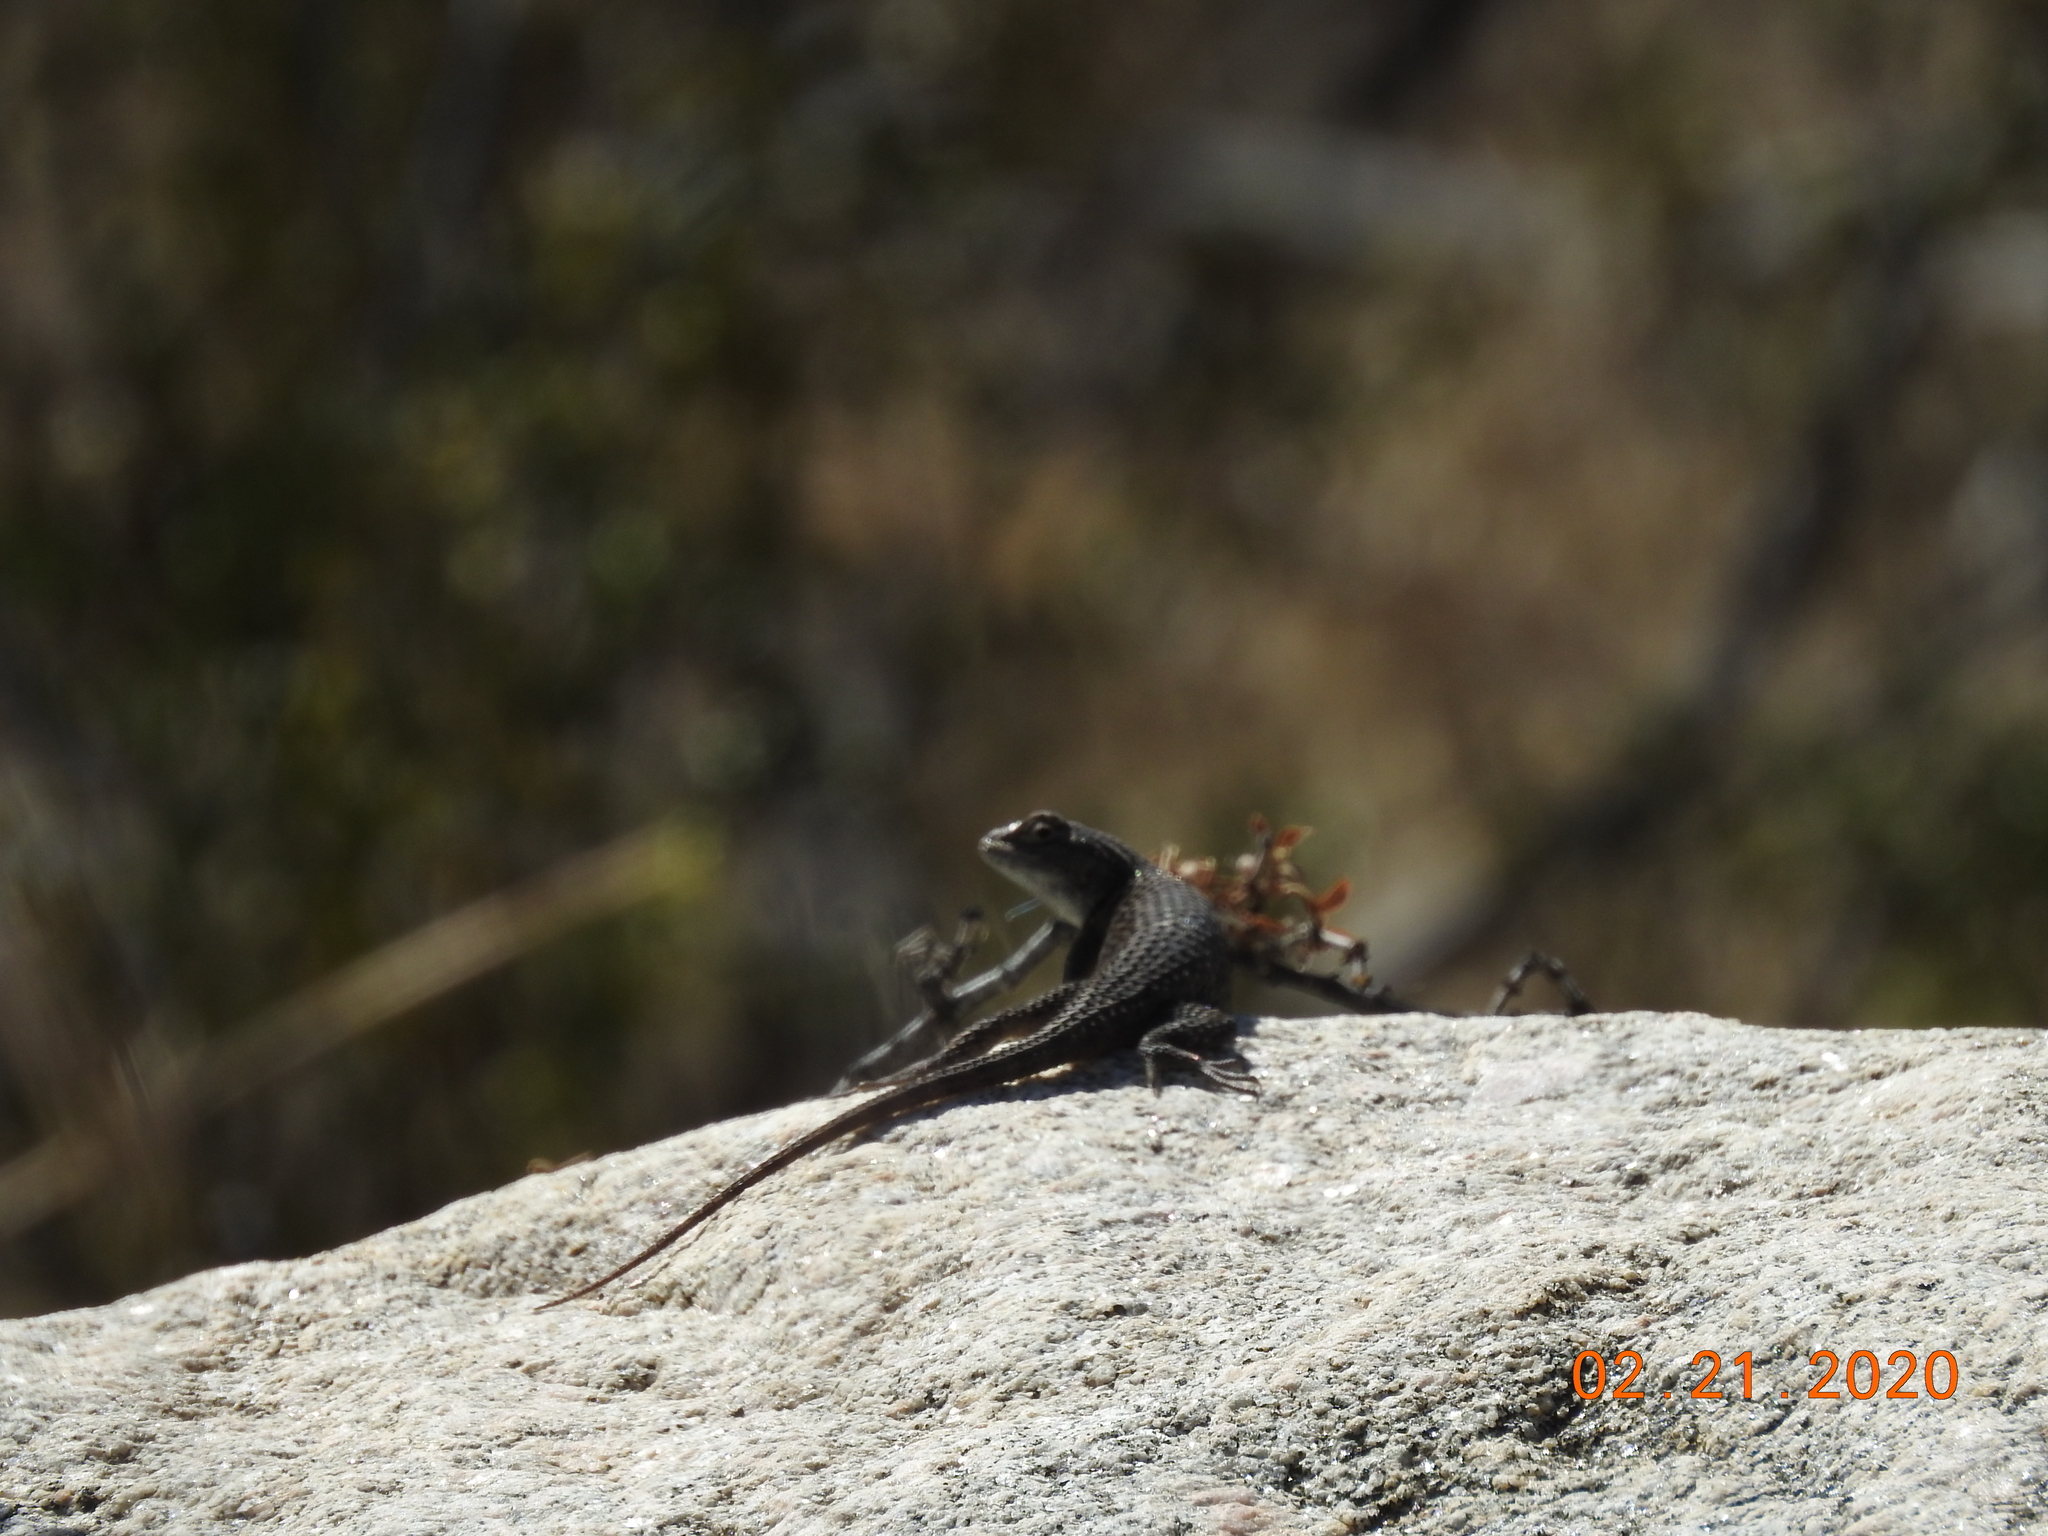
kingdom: Animalia
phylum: Chordata
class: Squamata
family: Phrynosomatidae
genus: Sceloporus
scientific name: Sceloporus magister
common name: Desert spiny lizard
